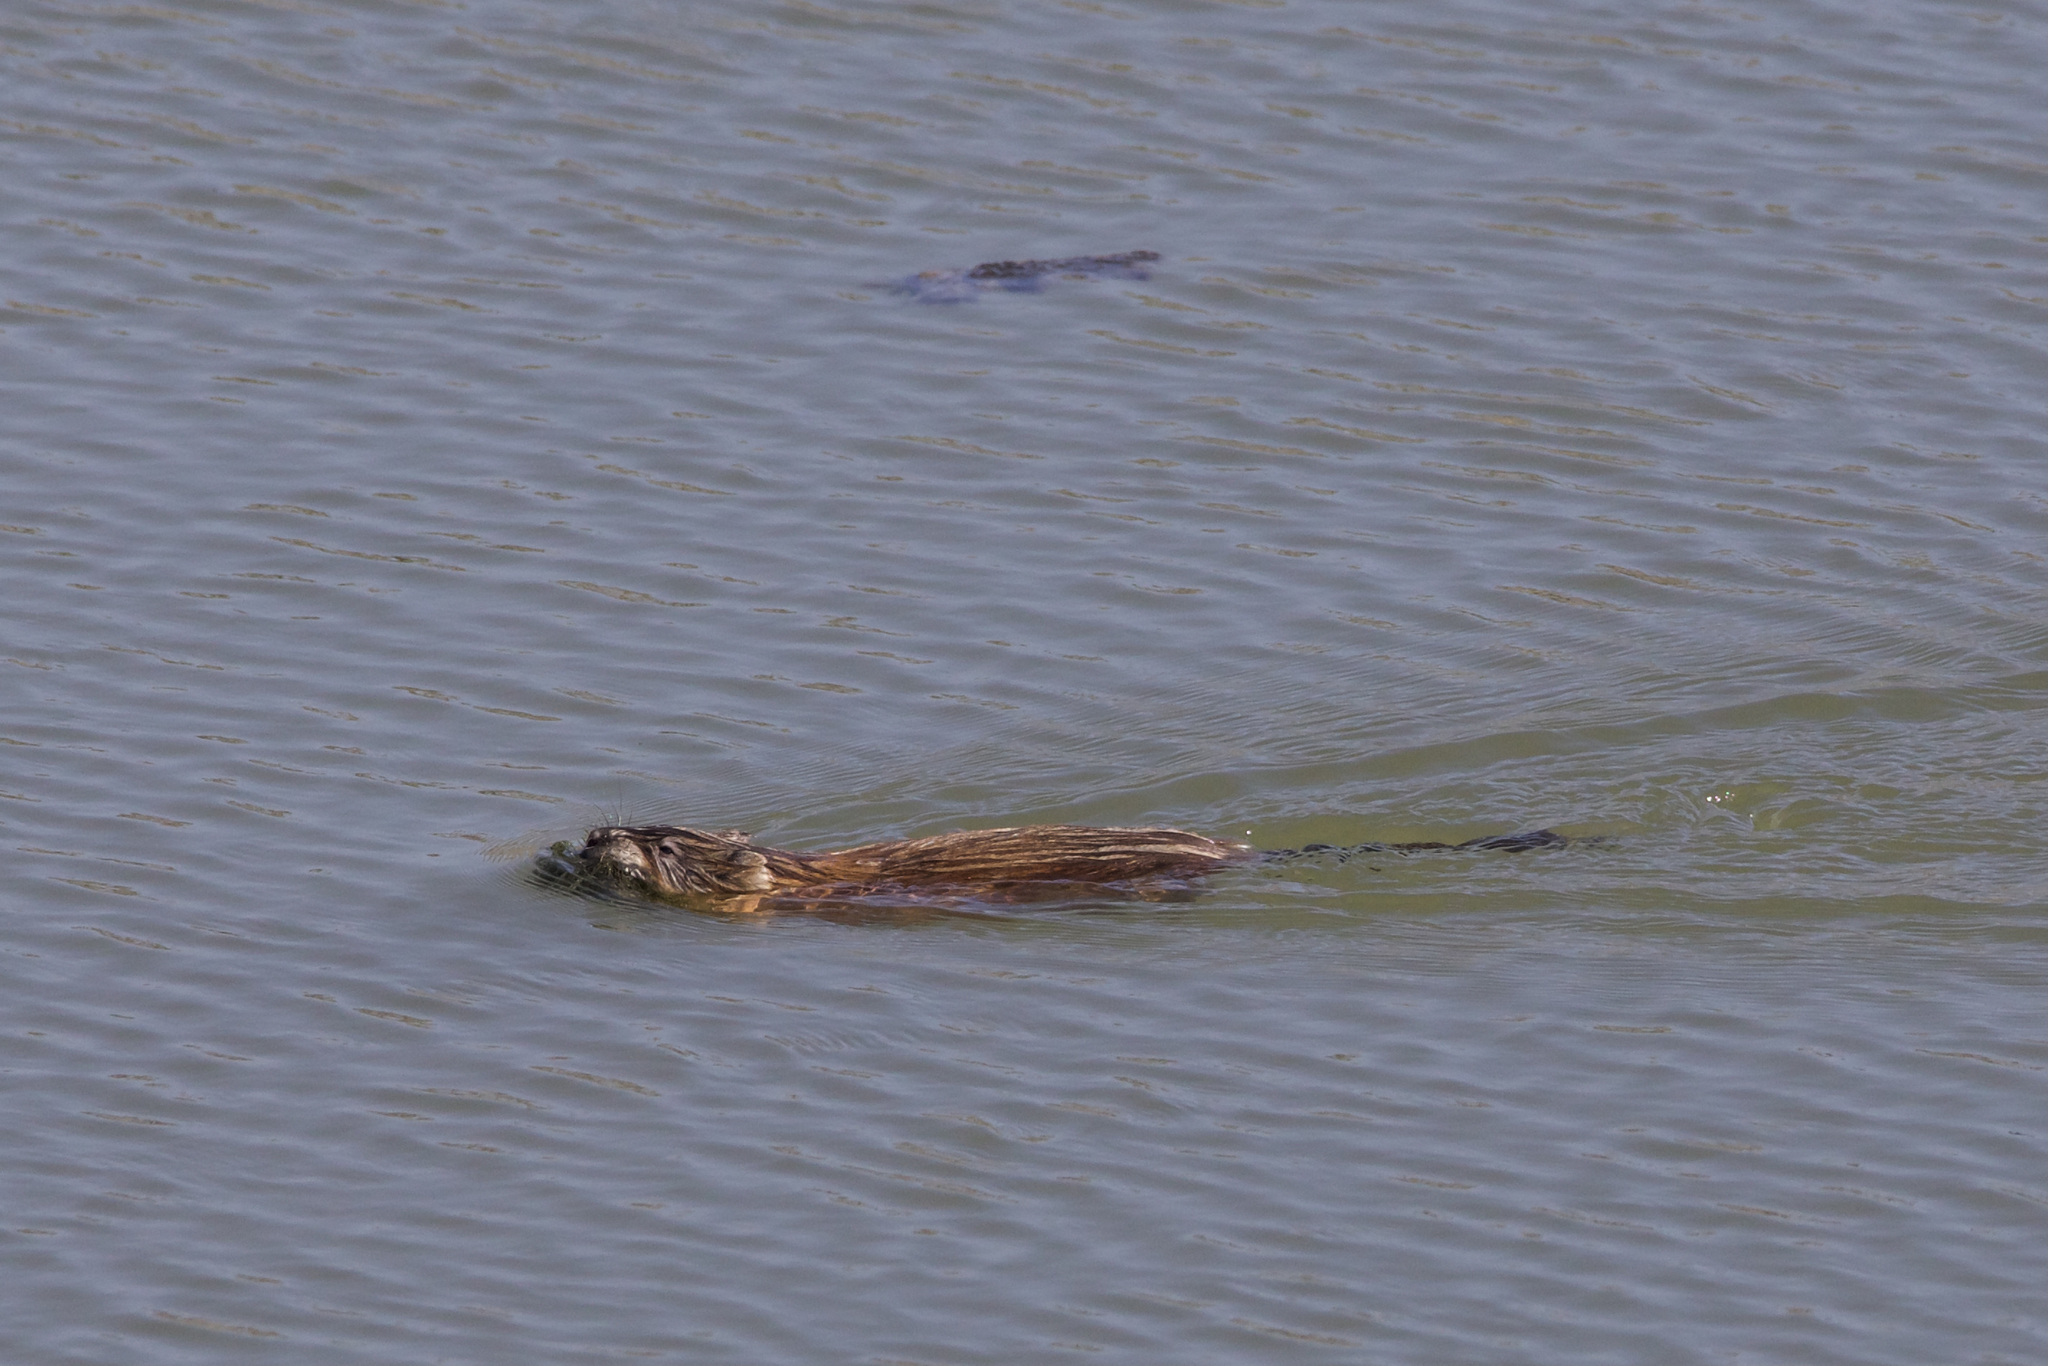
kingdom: Animalia
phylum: Chordata
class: Mammalia
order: Rodentia
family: Cricetidae
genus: Ondatra
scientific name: Ondatra zibethicus
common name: Muskrat
